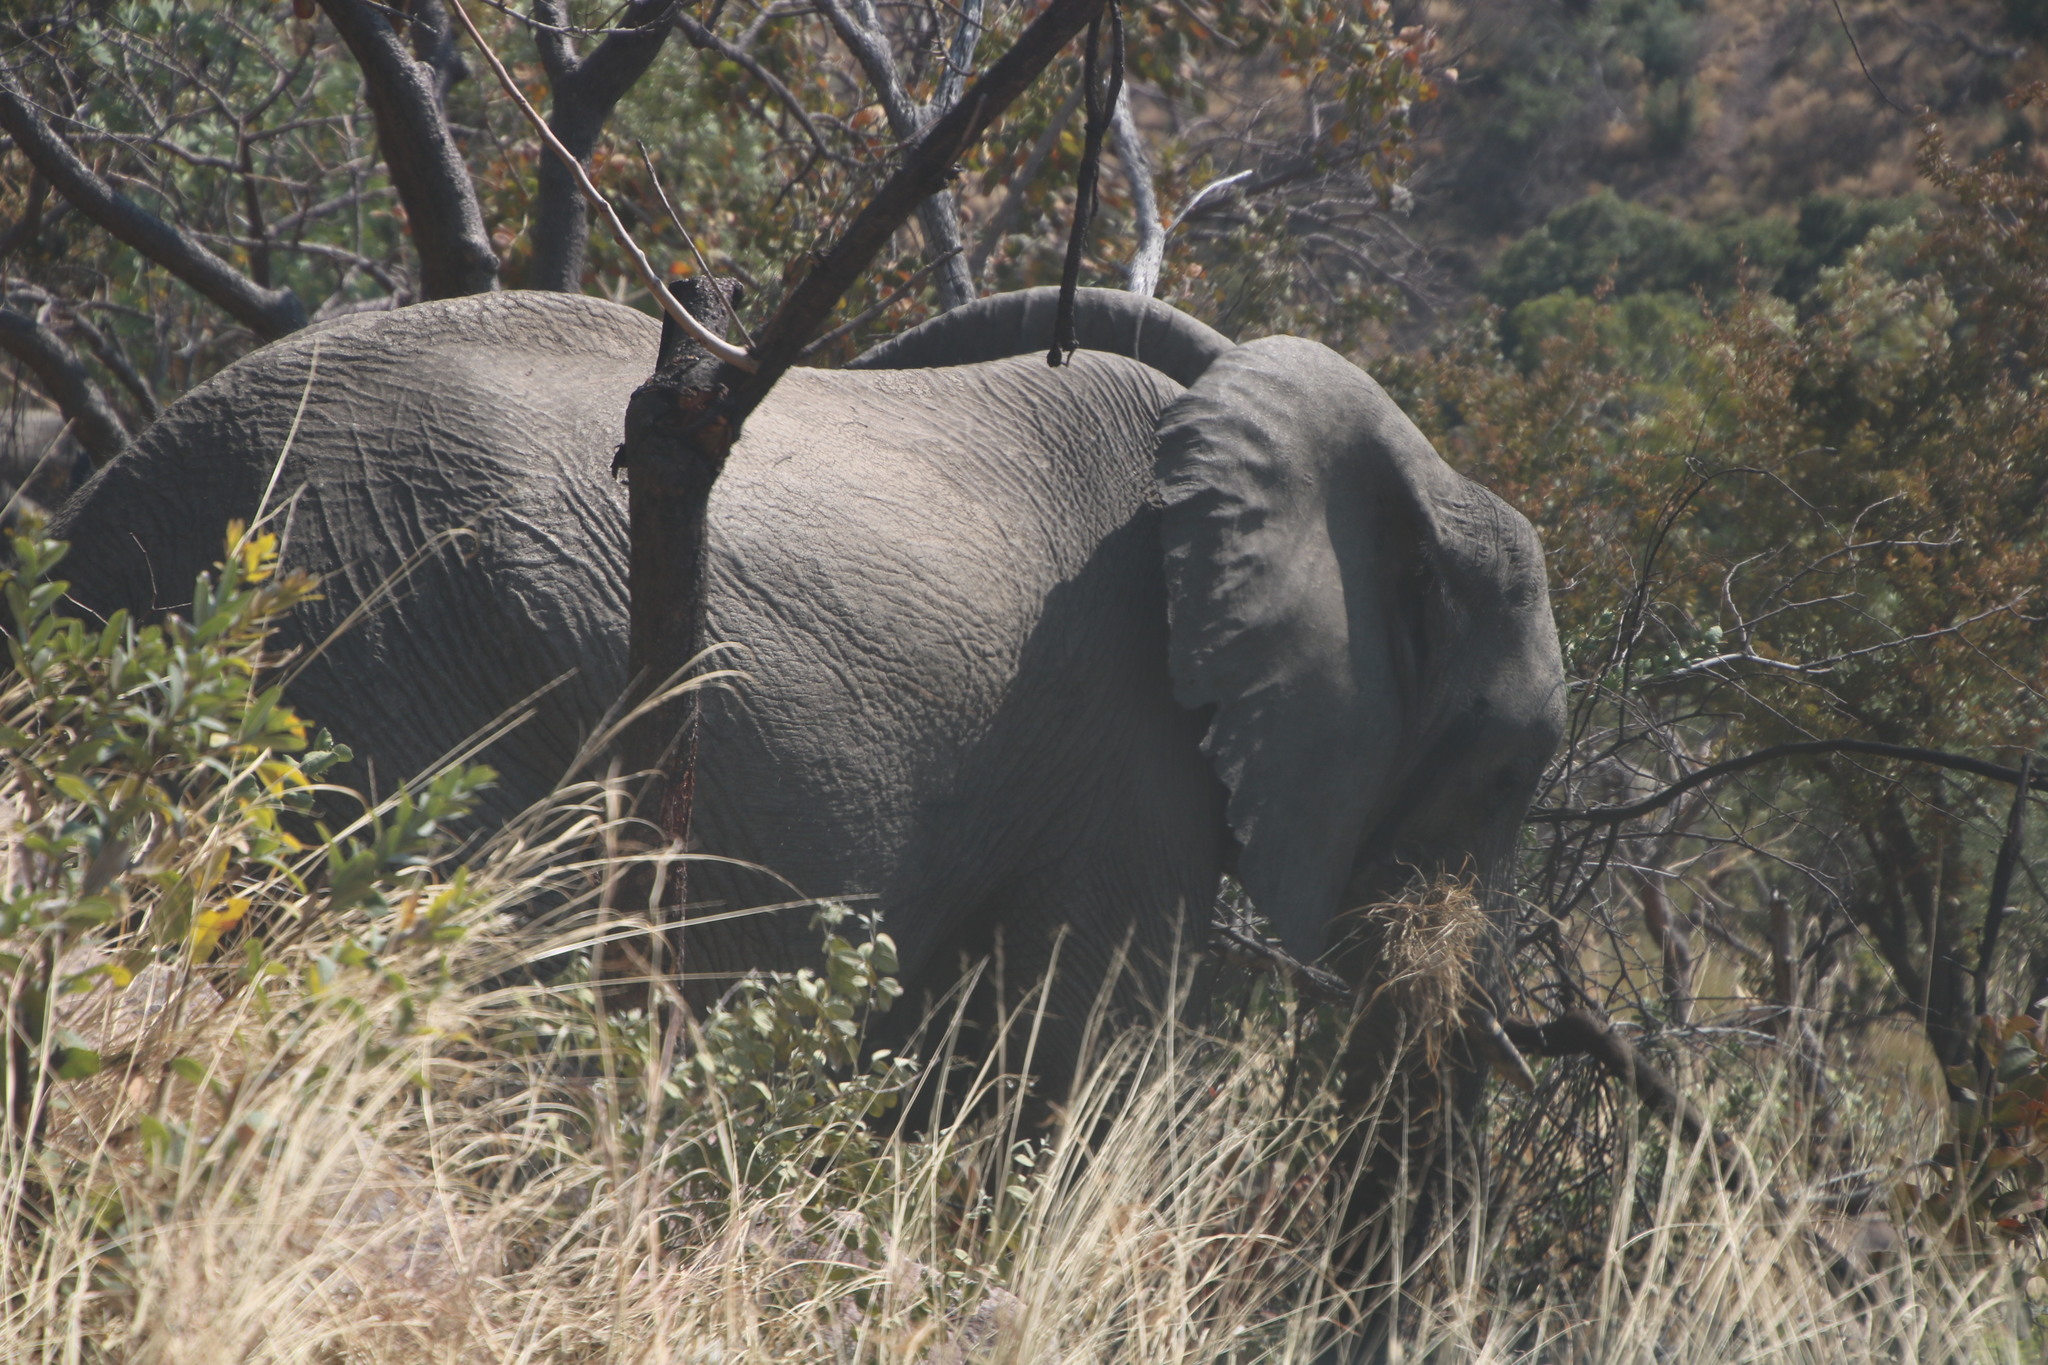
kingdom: Animalia
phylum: Chordata
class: Mammalia
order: Proboscidea
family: Elephantidae
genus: Loxodonta
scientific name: Loxodonta africana
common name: African elephant
